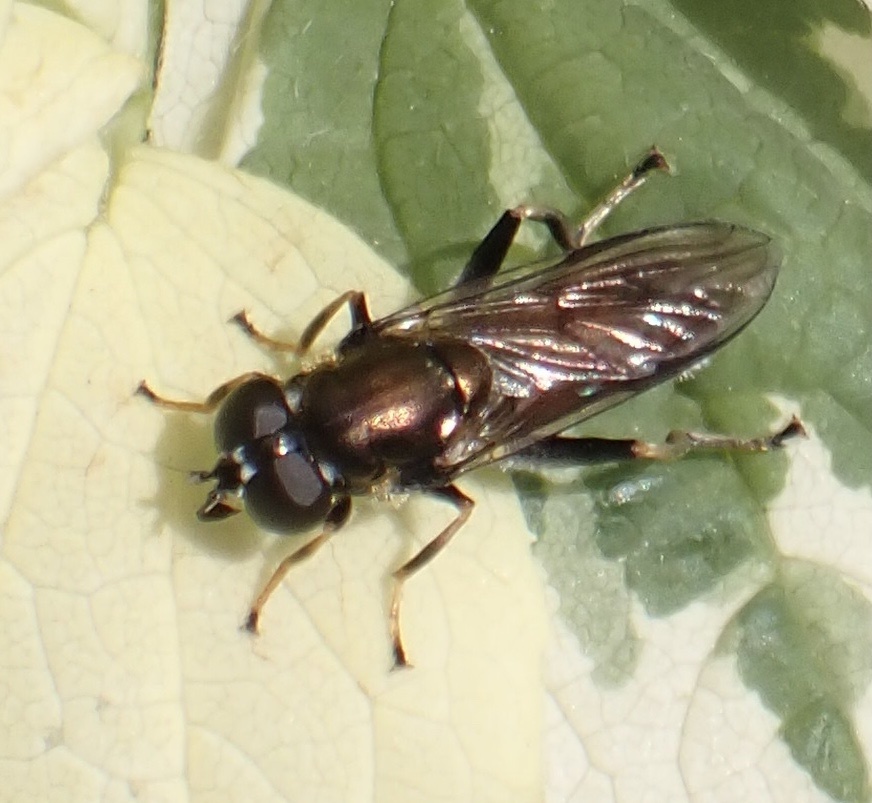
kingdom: Animalia
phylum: Arthropoda
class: Insecta
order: Diptera
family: Syrphidae
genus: Xylota
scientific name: Xylota segnis
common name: Brown-toed forest fly
